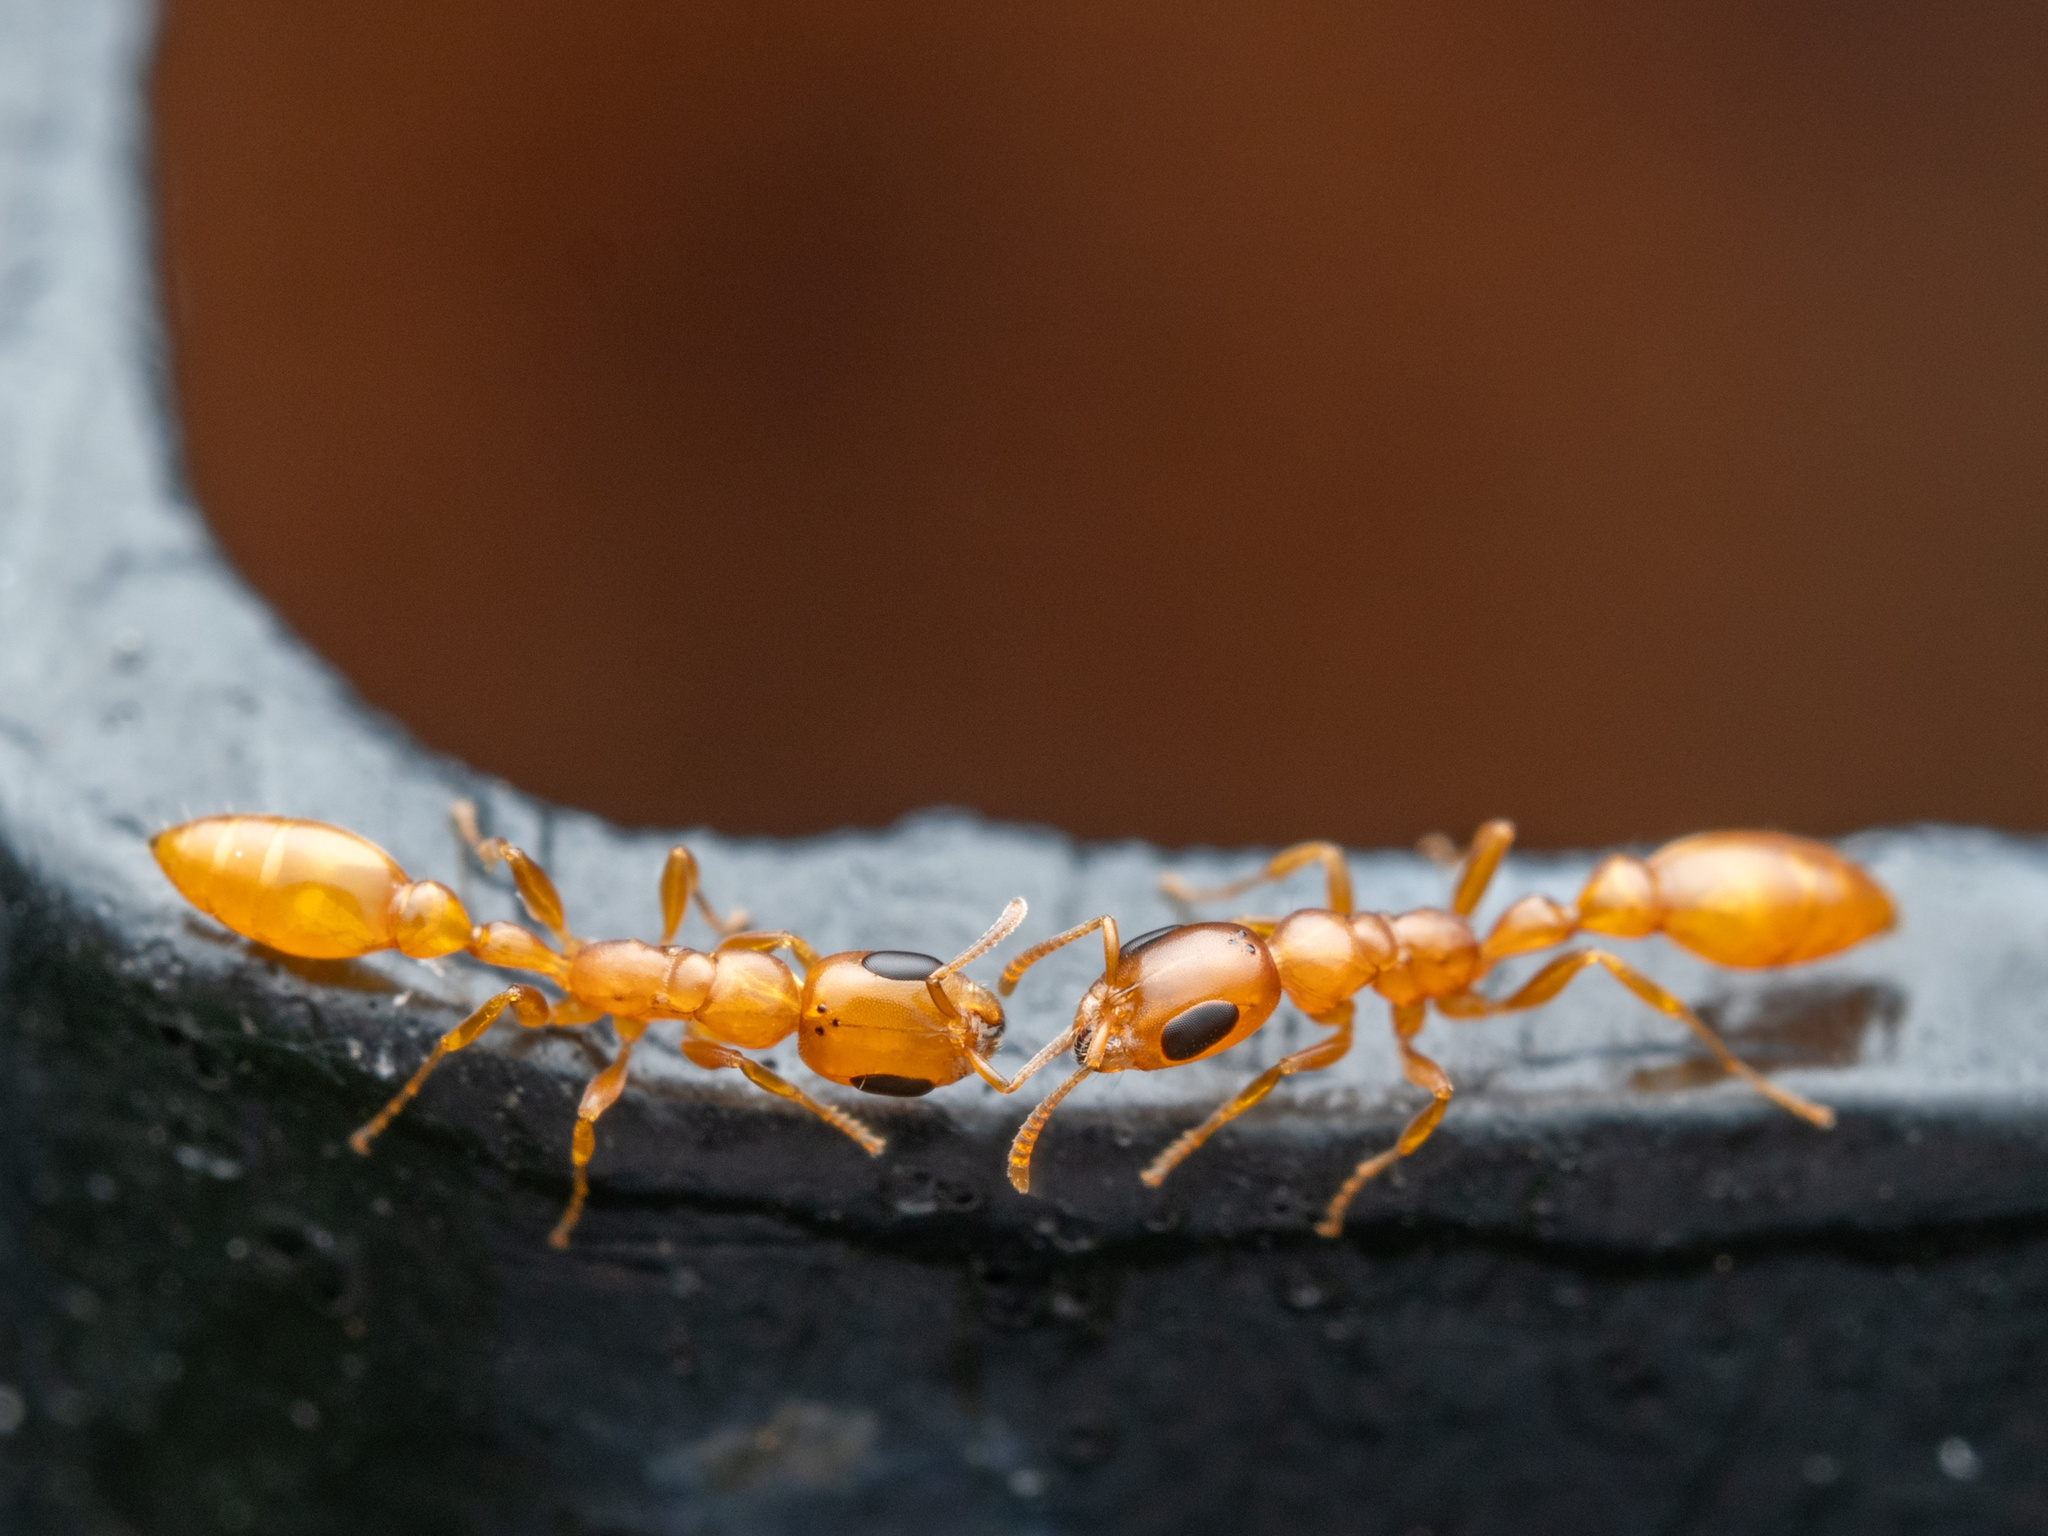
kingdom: Animalia
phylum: Arthropoda
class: Insecta
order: Hymenoptera
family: Formicidae
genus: Pseudomyrmex
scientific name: Pseudomyrmex pallidus
